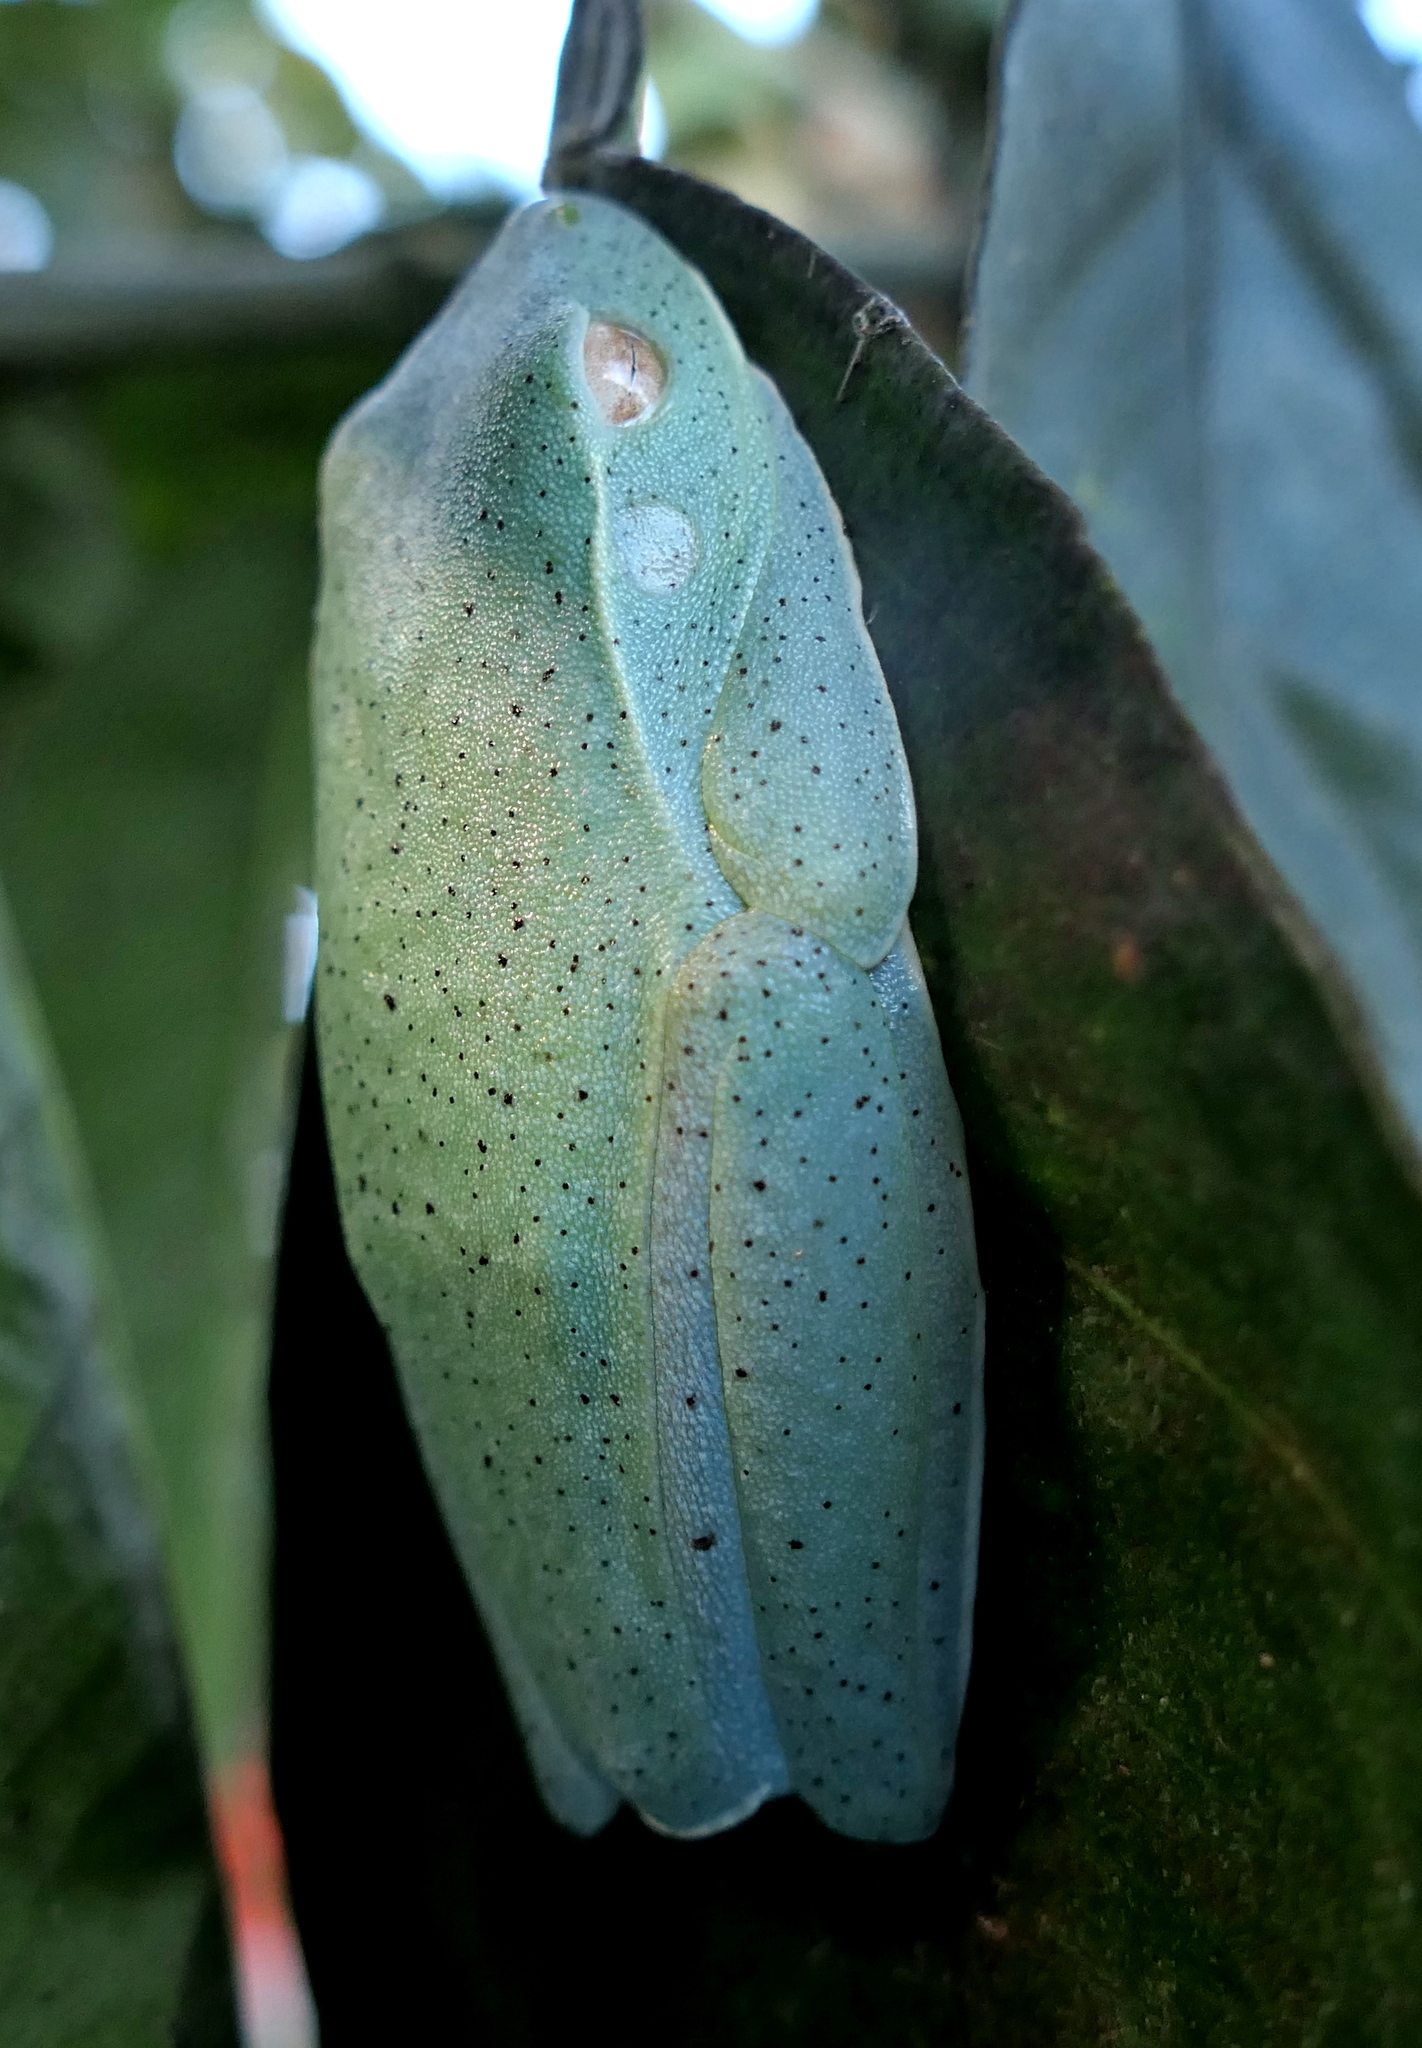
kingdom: Animalia
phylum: Chordata
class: Amphibia
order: Anura
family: Hylidae
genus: Boana
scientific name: Boana albomarginata
